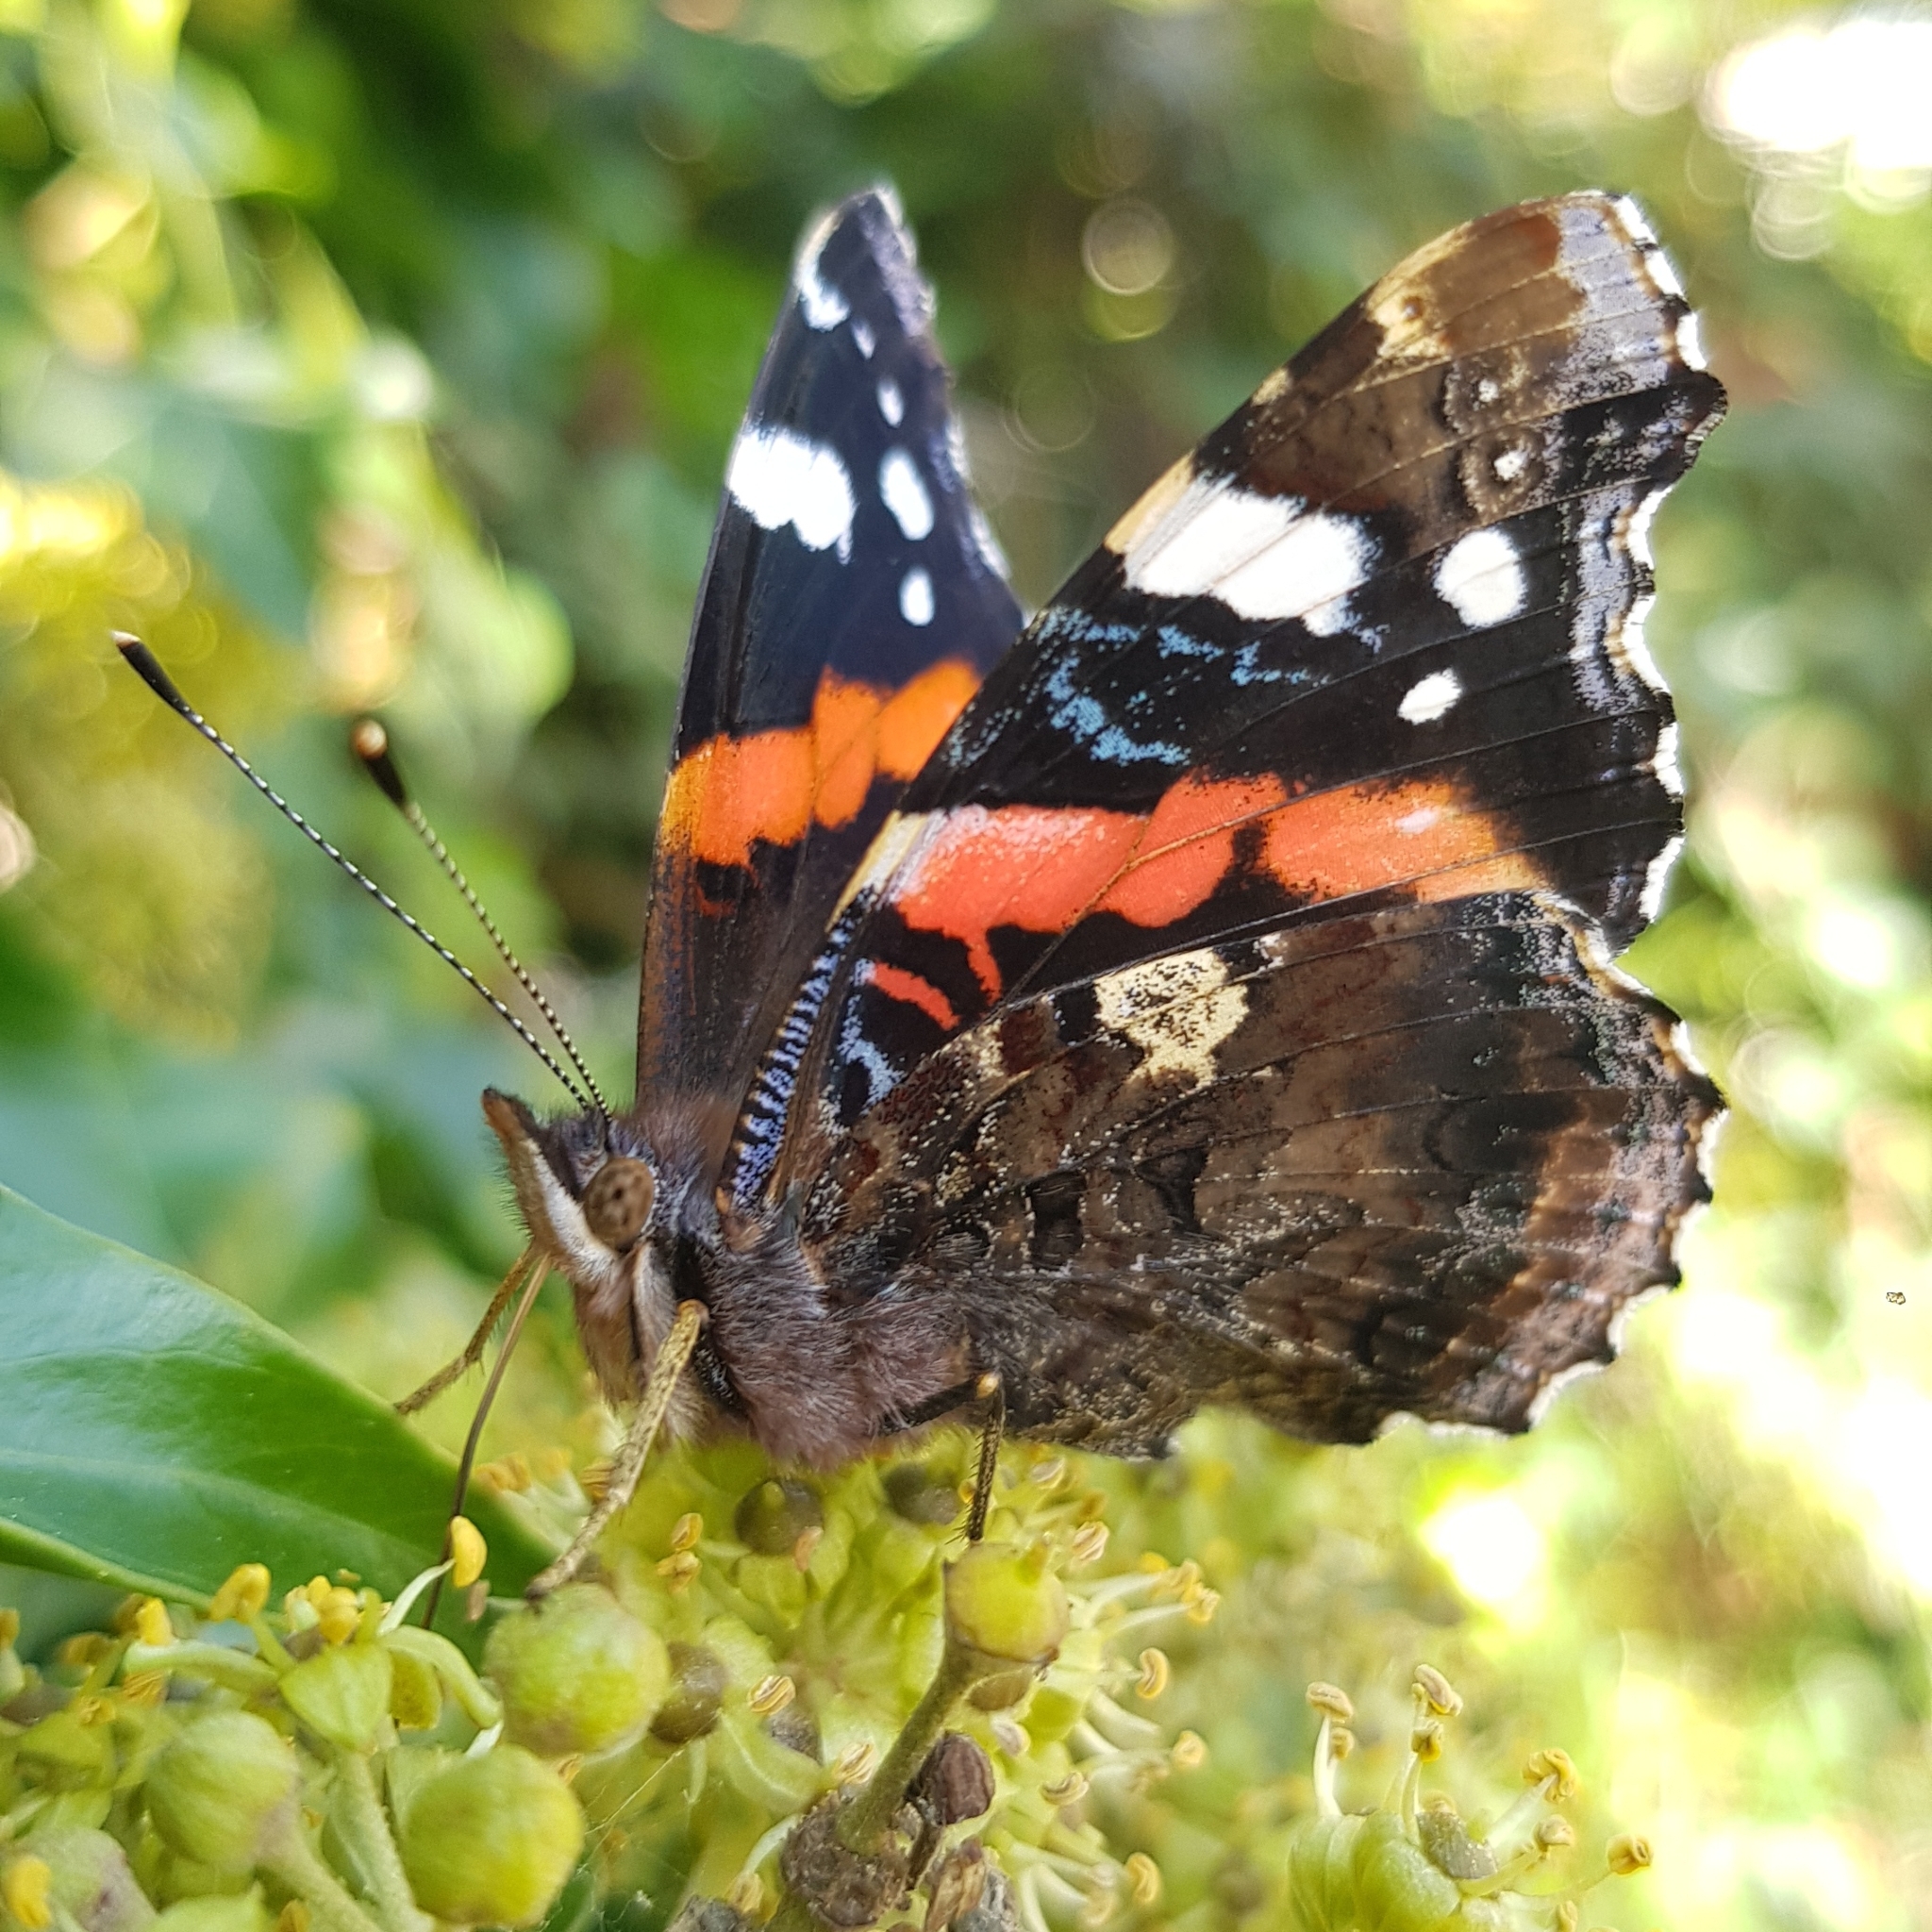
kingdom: Animalia
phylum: Arthropoda
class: Insecta
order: Lepidoptera
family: Nymphalidae
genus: Vanessa
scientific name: Vanessa atalanta
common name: Red admiral
